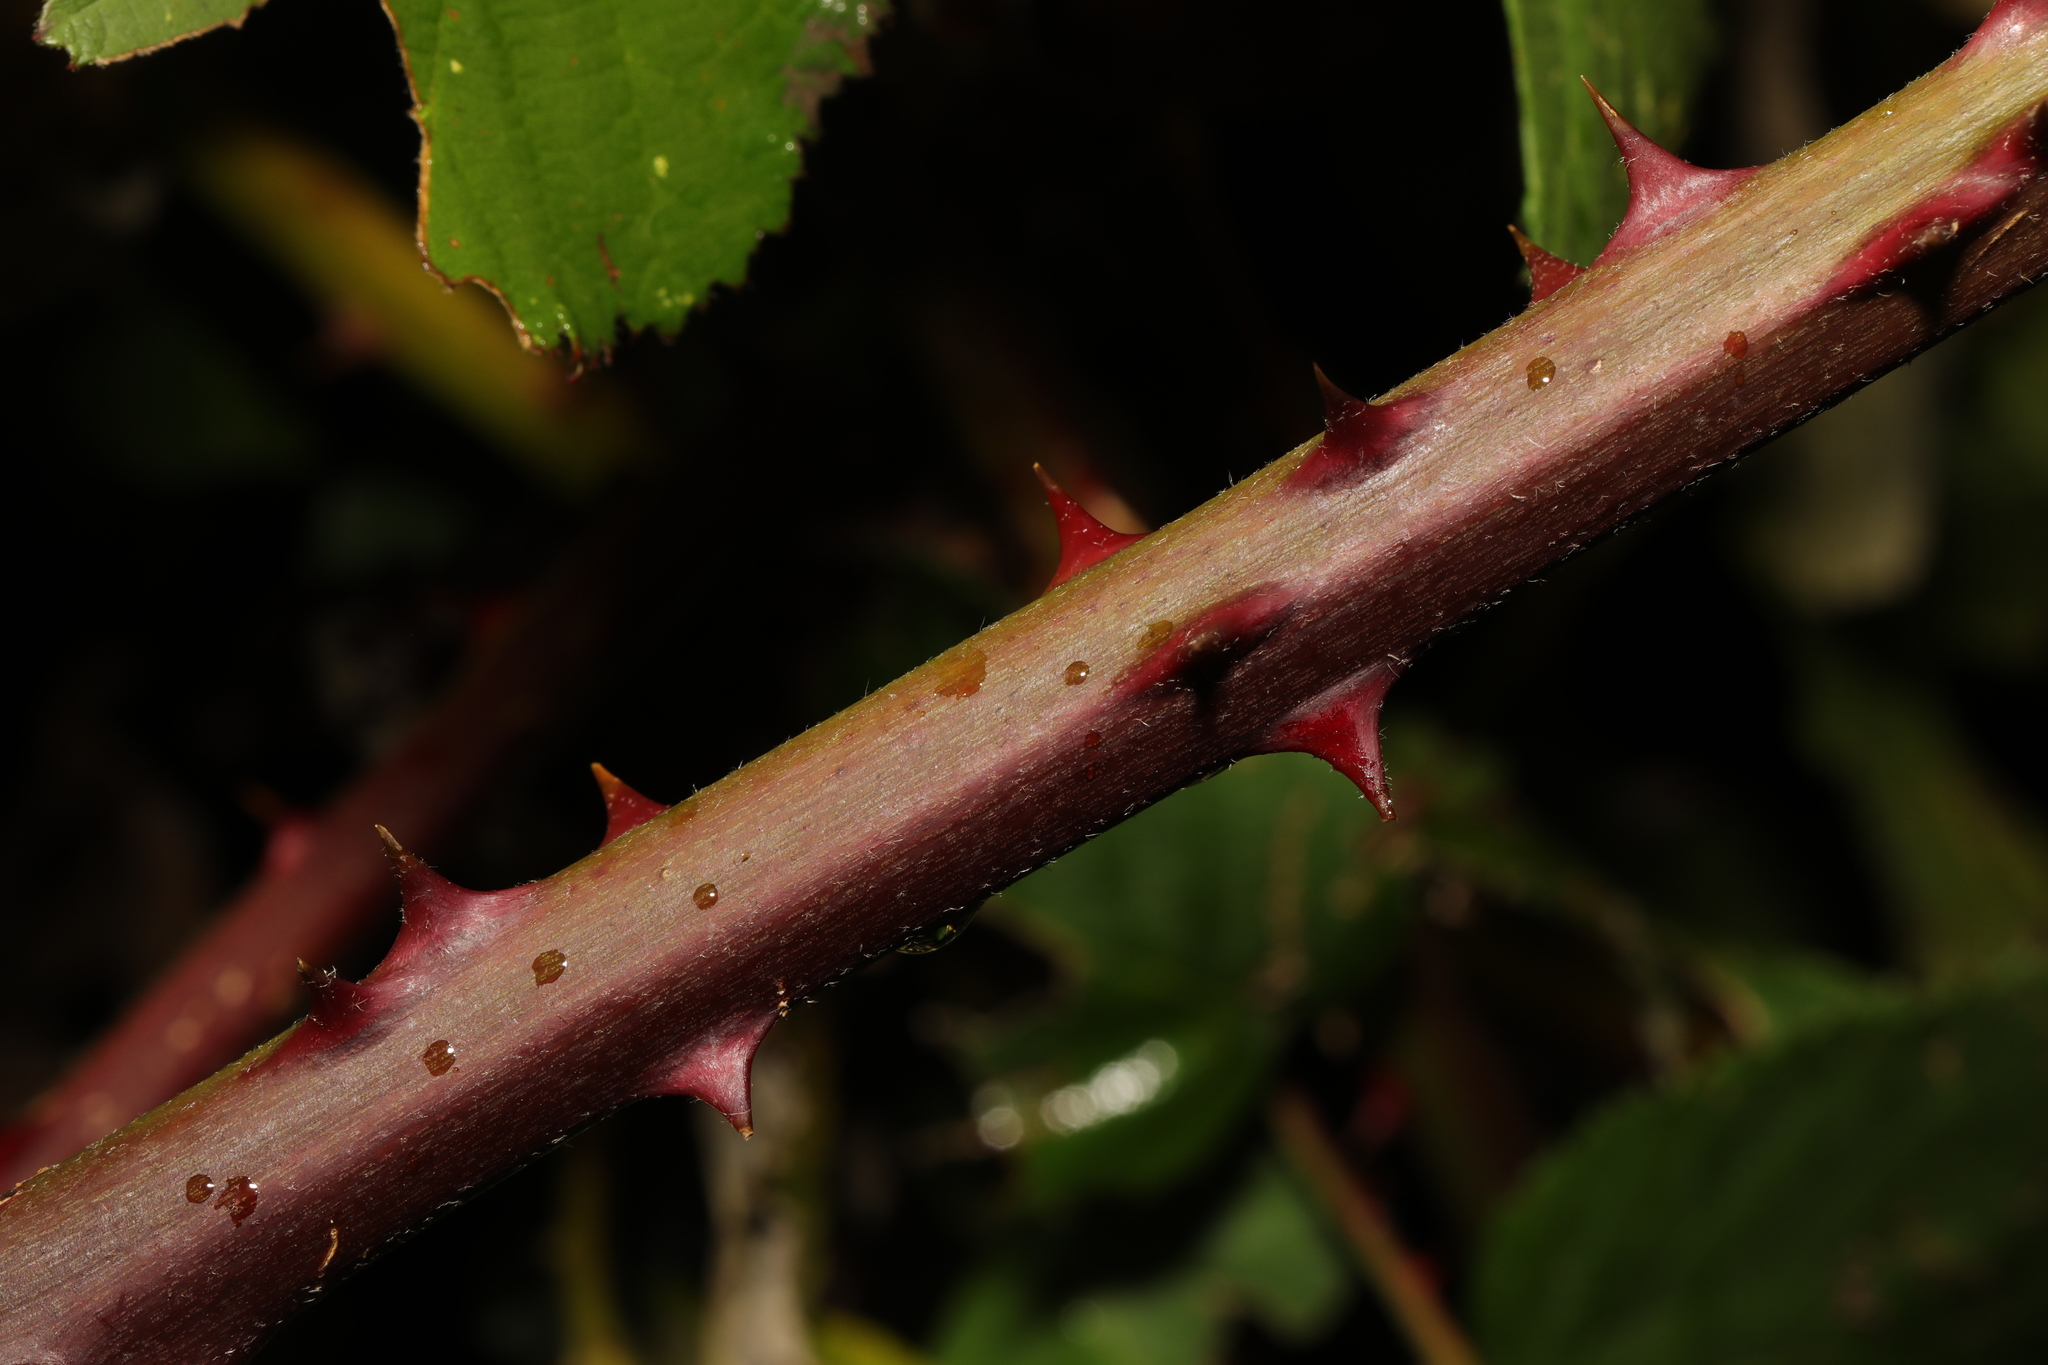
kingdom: Plantae
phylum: Tracheophyta
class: Magnoliopsida
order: Rosales
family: Rosaceae
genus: Rubus
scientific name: Rubus armeniacus
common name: Himalayan blackberry
